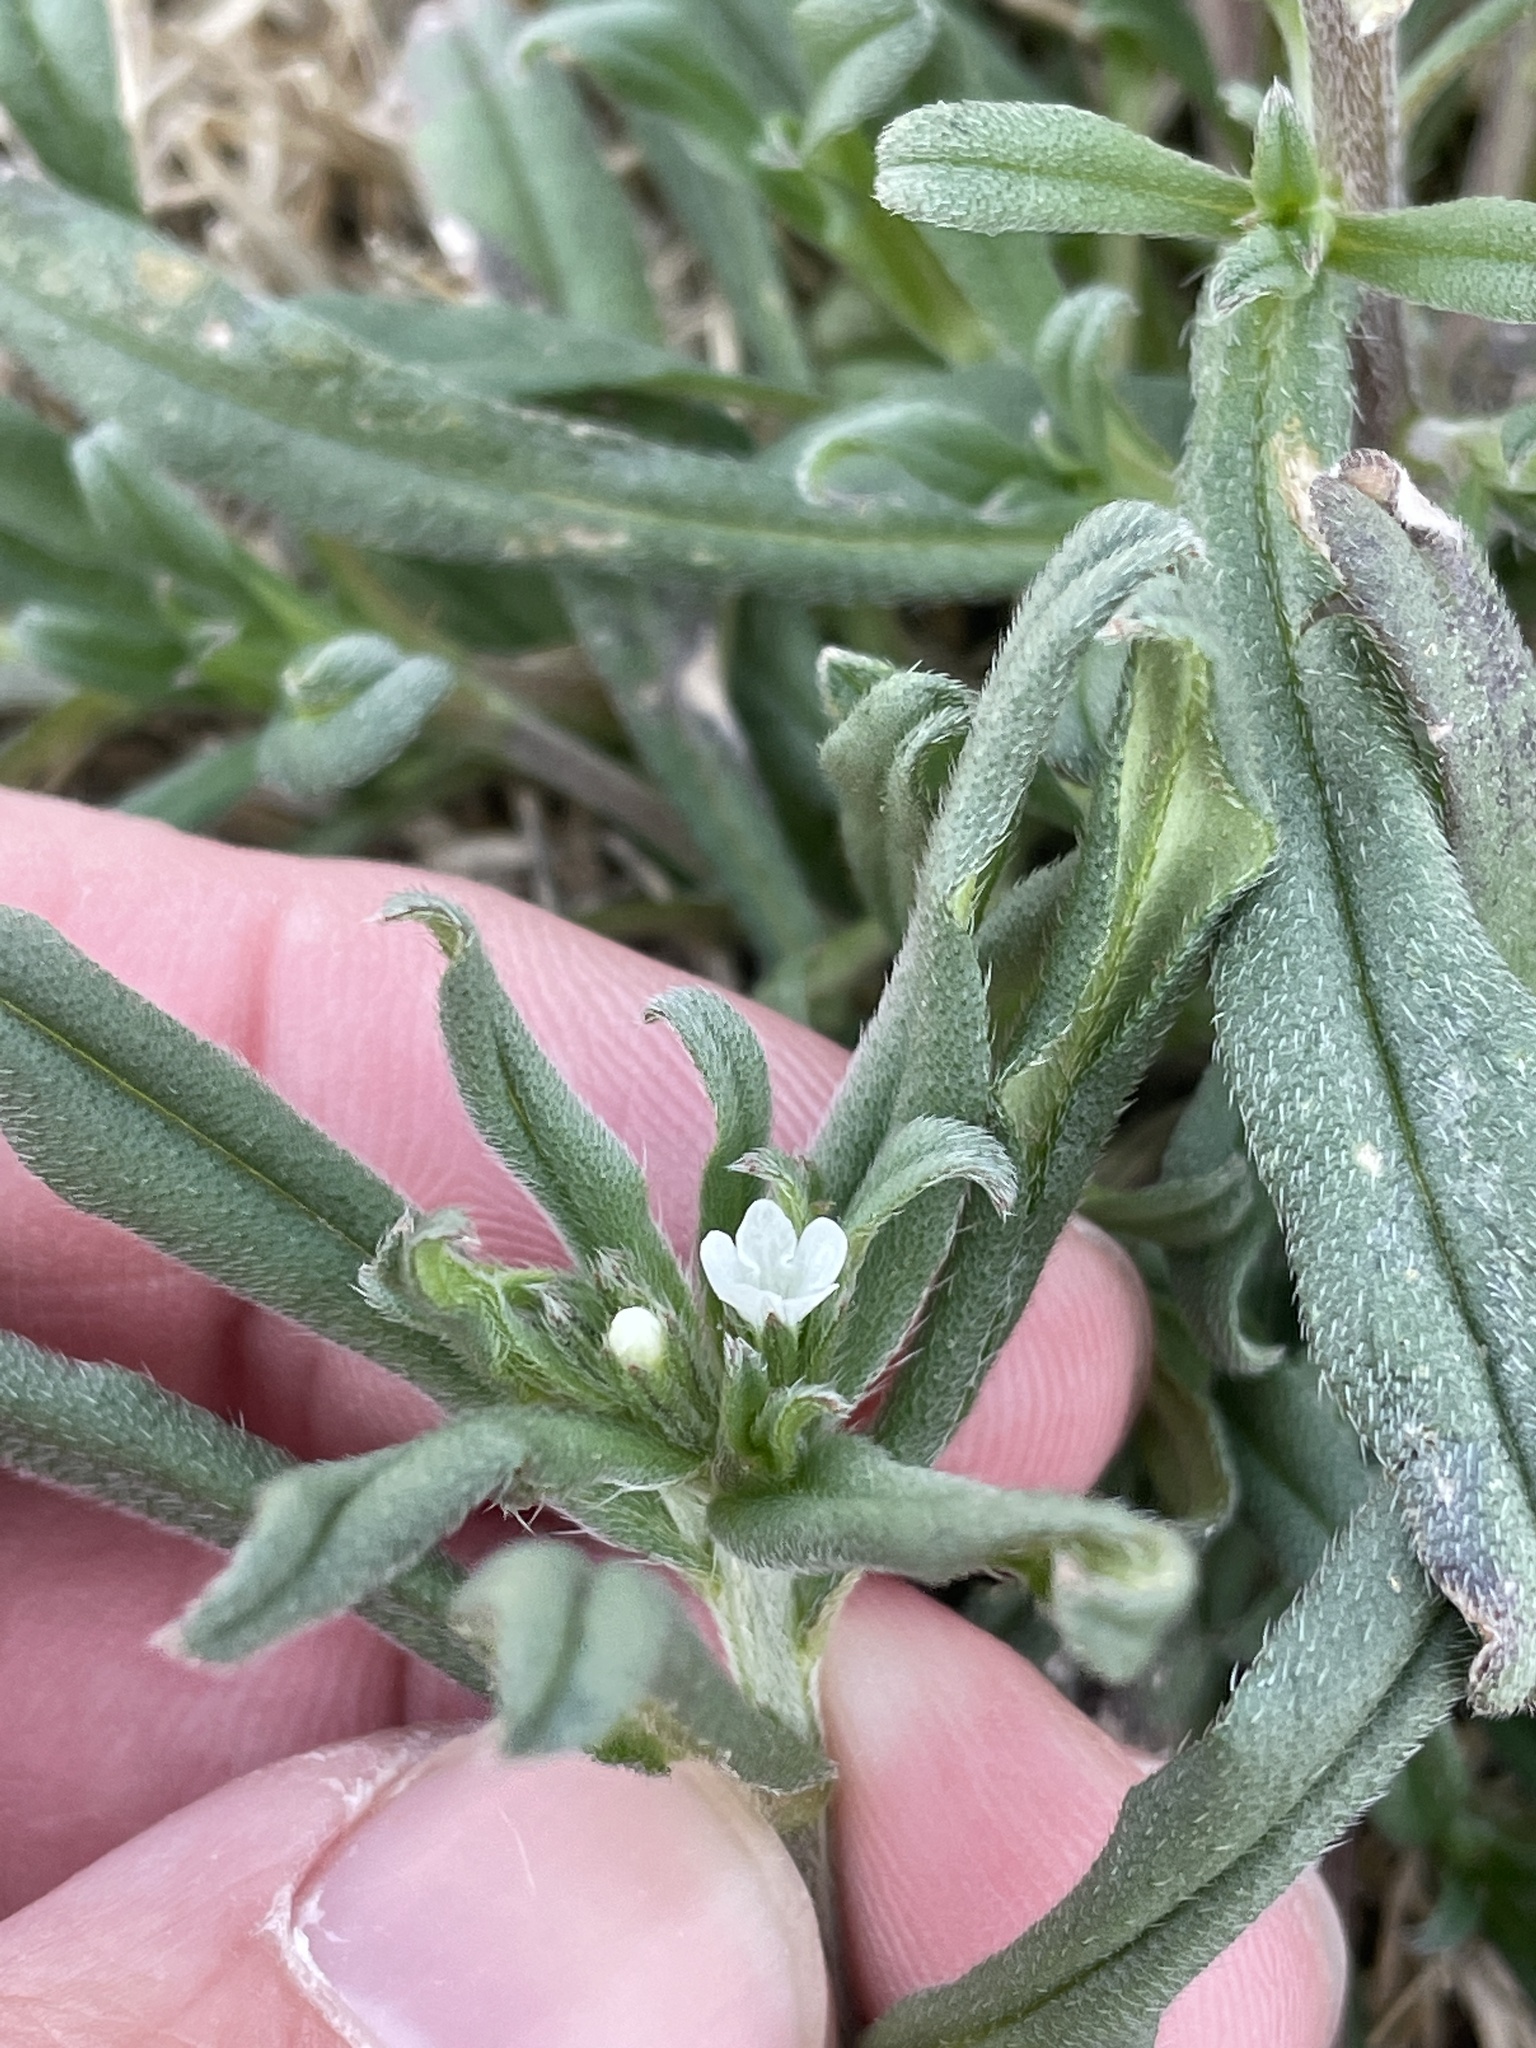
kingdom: Plantae
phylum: Tracheophyta
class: Magnoliopsida
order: Boraginales
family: Boraginaceae
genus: Buglossoides
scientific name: Buglossoides arvensis
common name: Corn gromwell
